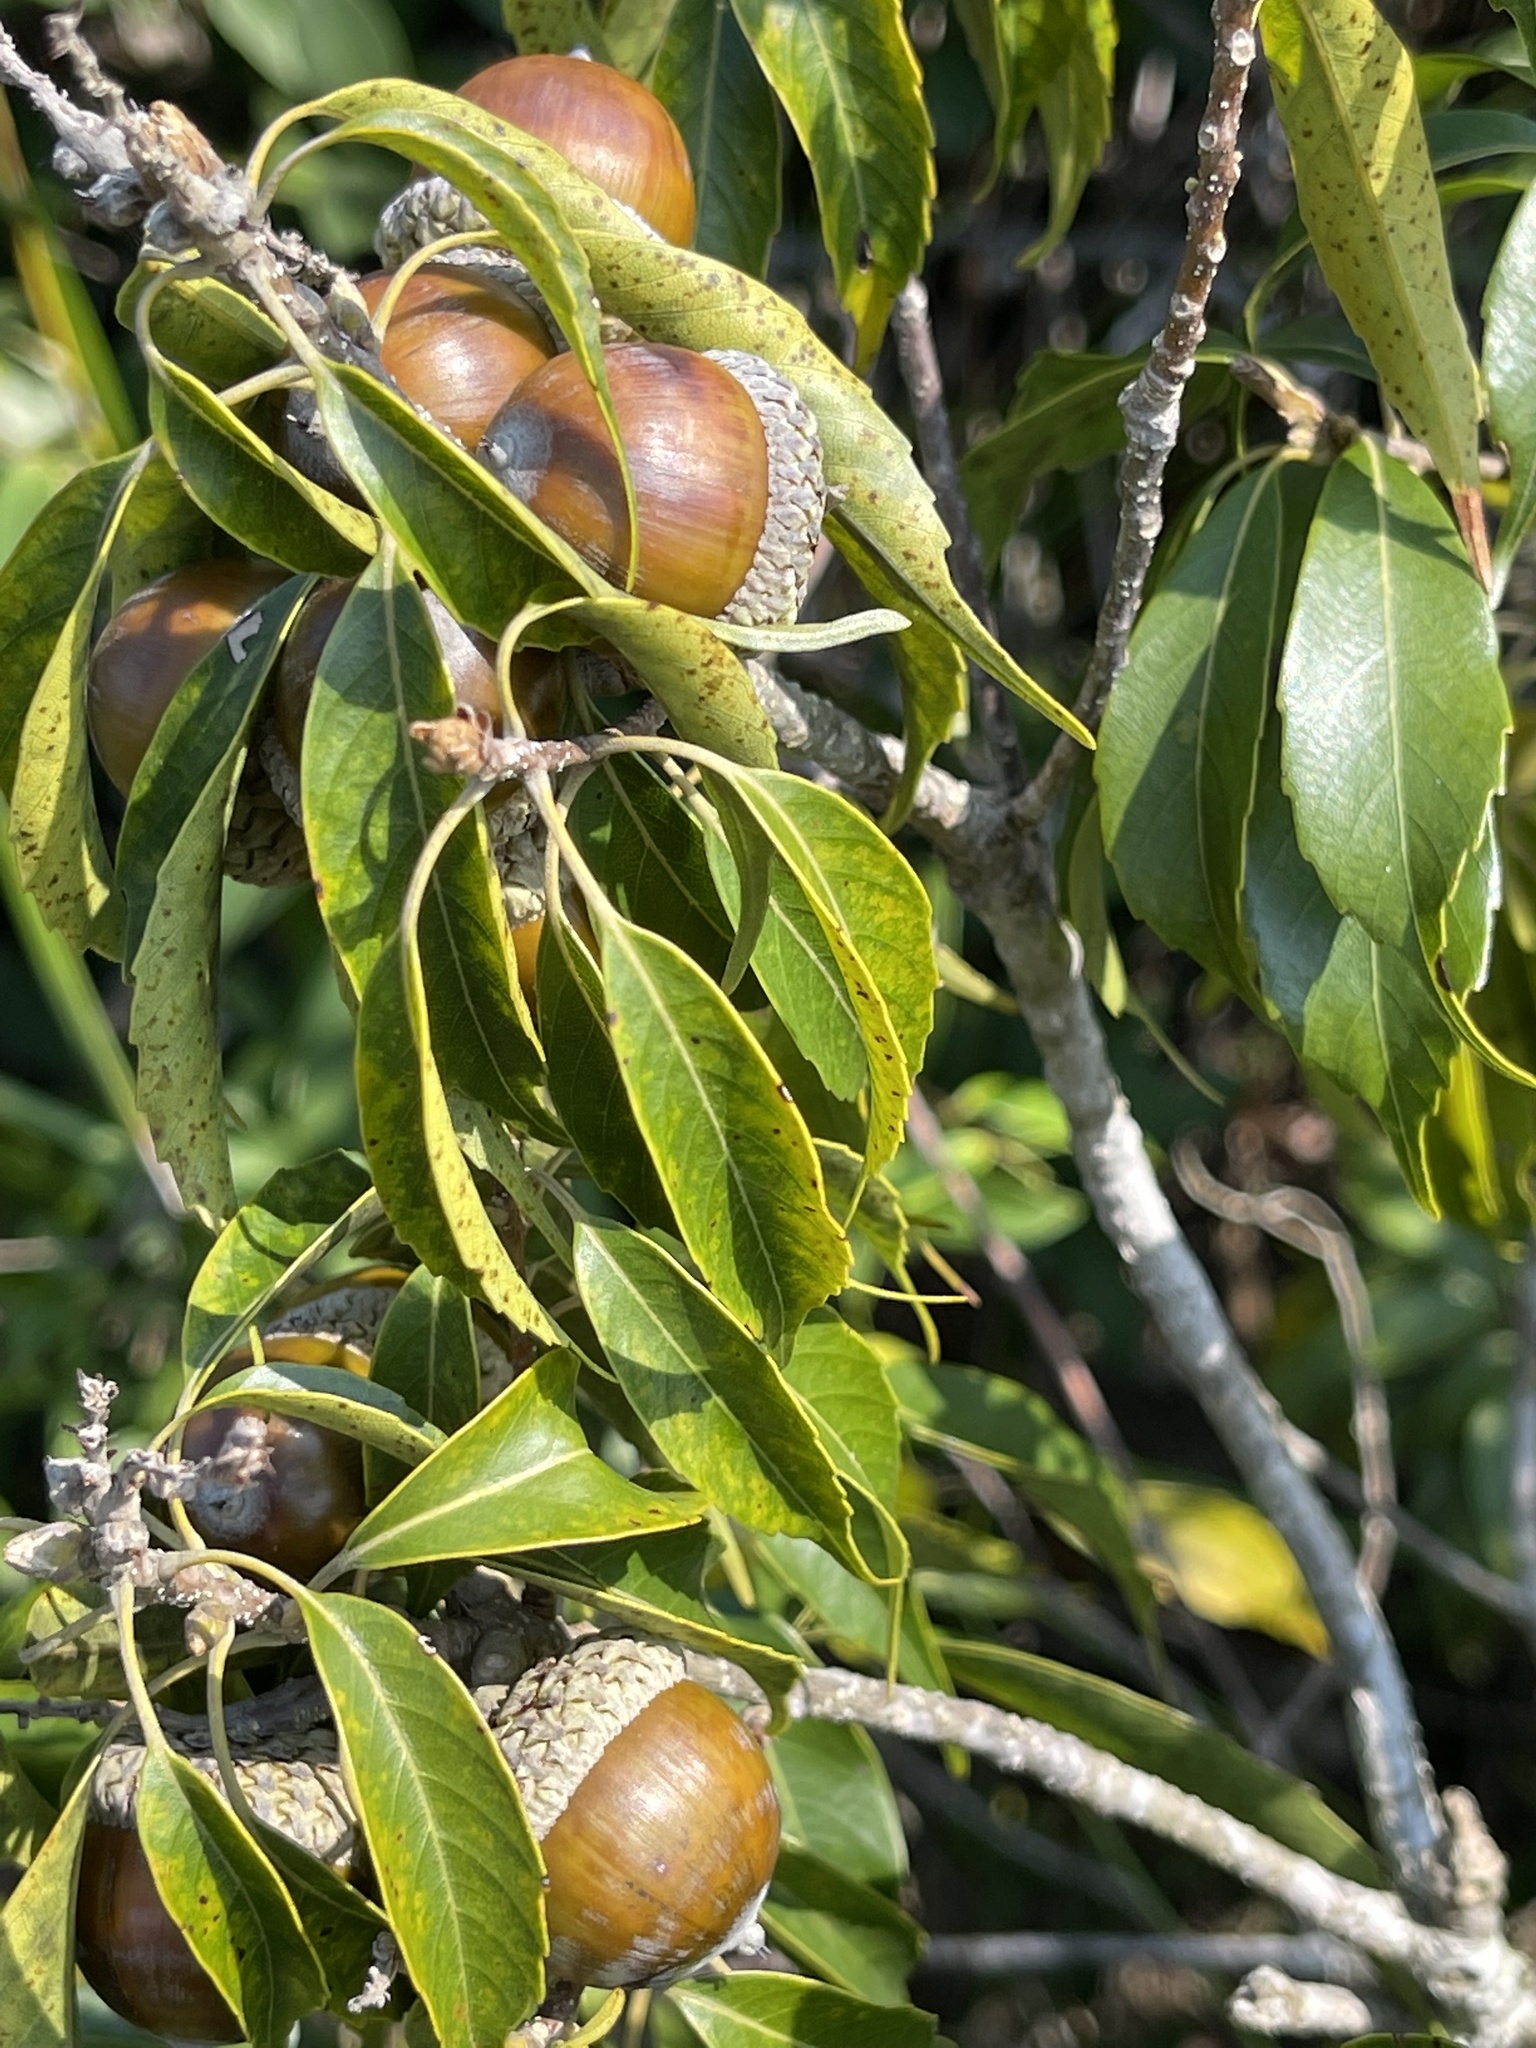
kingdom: Plantae
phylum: Tracheophyta
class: Magnoliopsida
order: Fagales
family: Fagaceae
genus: Lithocarpus
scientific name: Lithocarpus konishii
